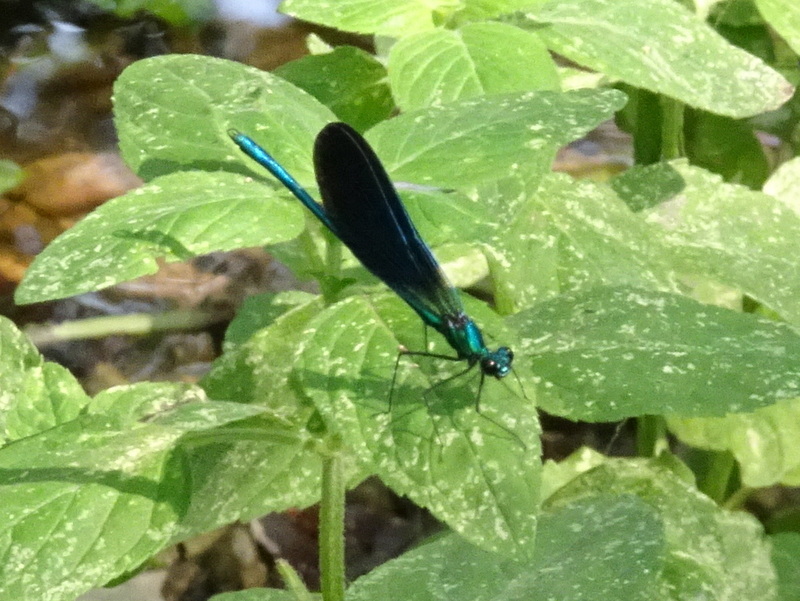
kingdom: Animalia
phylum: Arthropoda
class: Insecta
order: Odonata
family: Calopterygidae
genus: Calopteryx
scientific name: Calopteryx virgo
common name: Beautiful demoiselle
